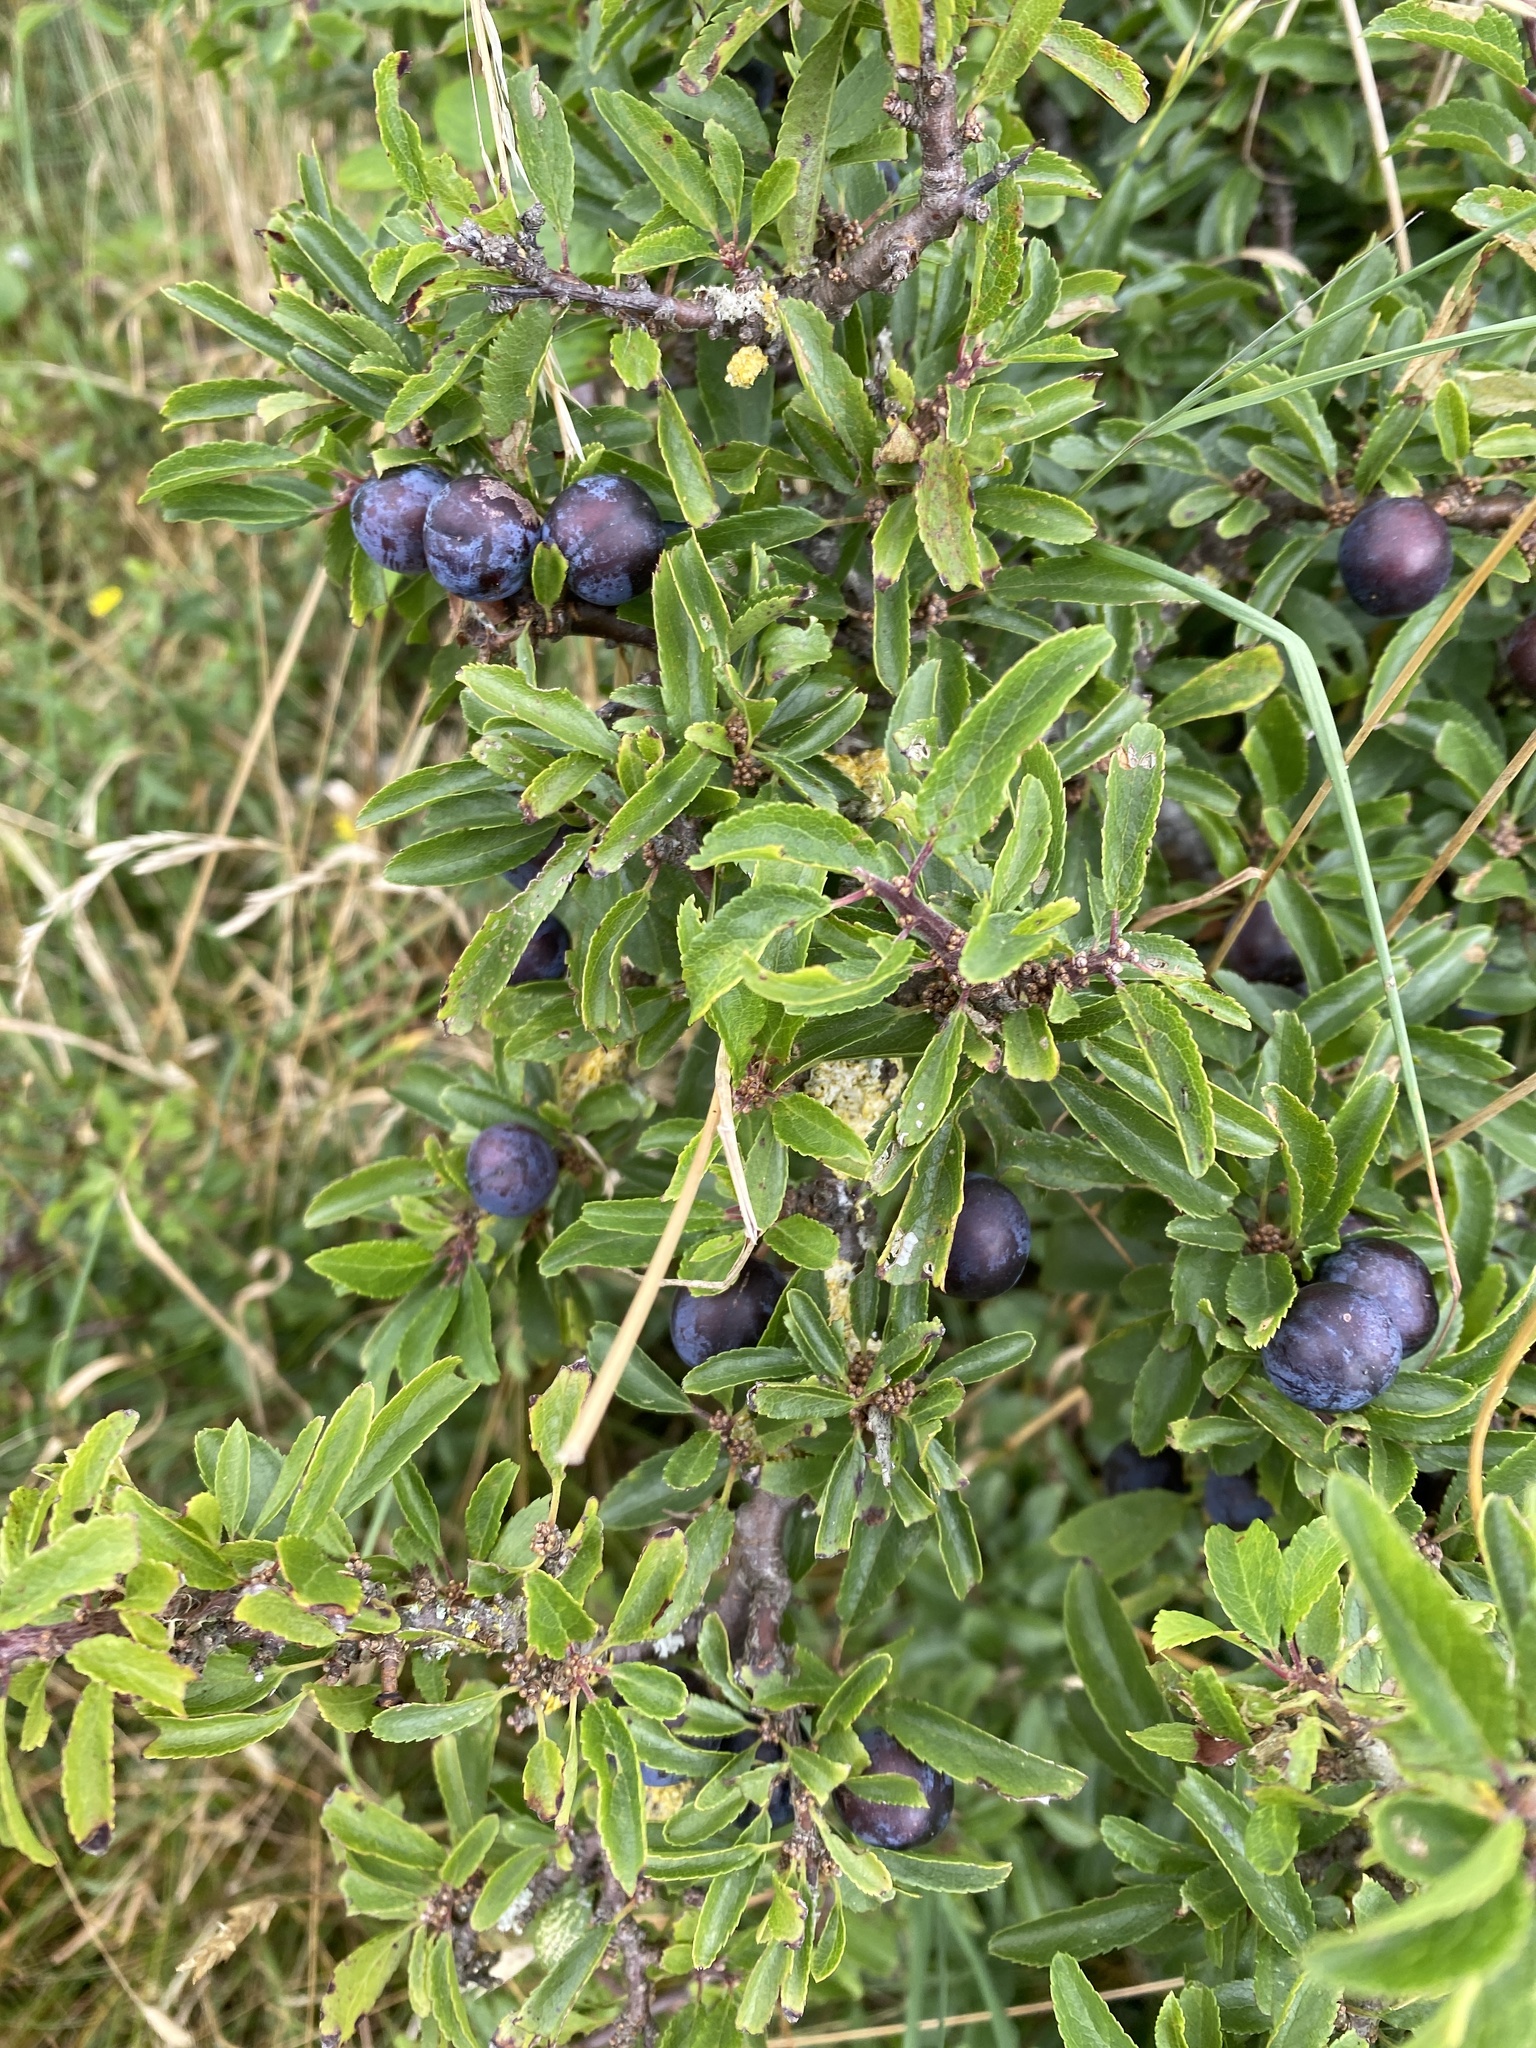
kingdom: Plantae
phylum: Tracheophyta
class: Magnoliopsida
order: Rosales
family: Rosaceae
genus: Prunus
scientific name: Prunus spinosa
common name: Blackthorn
